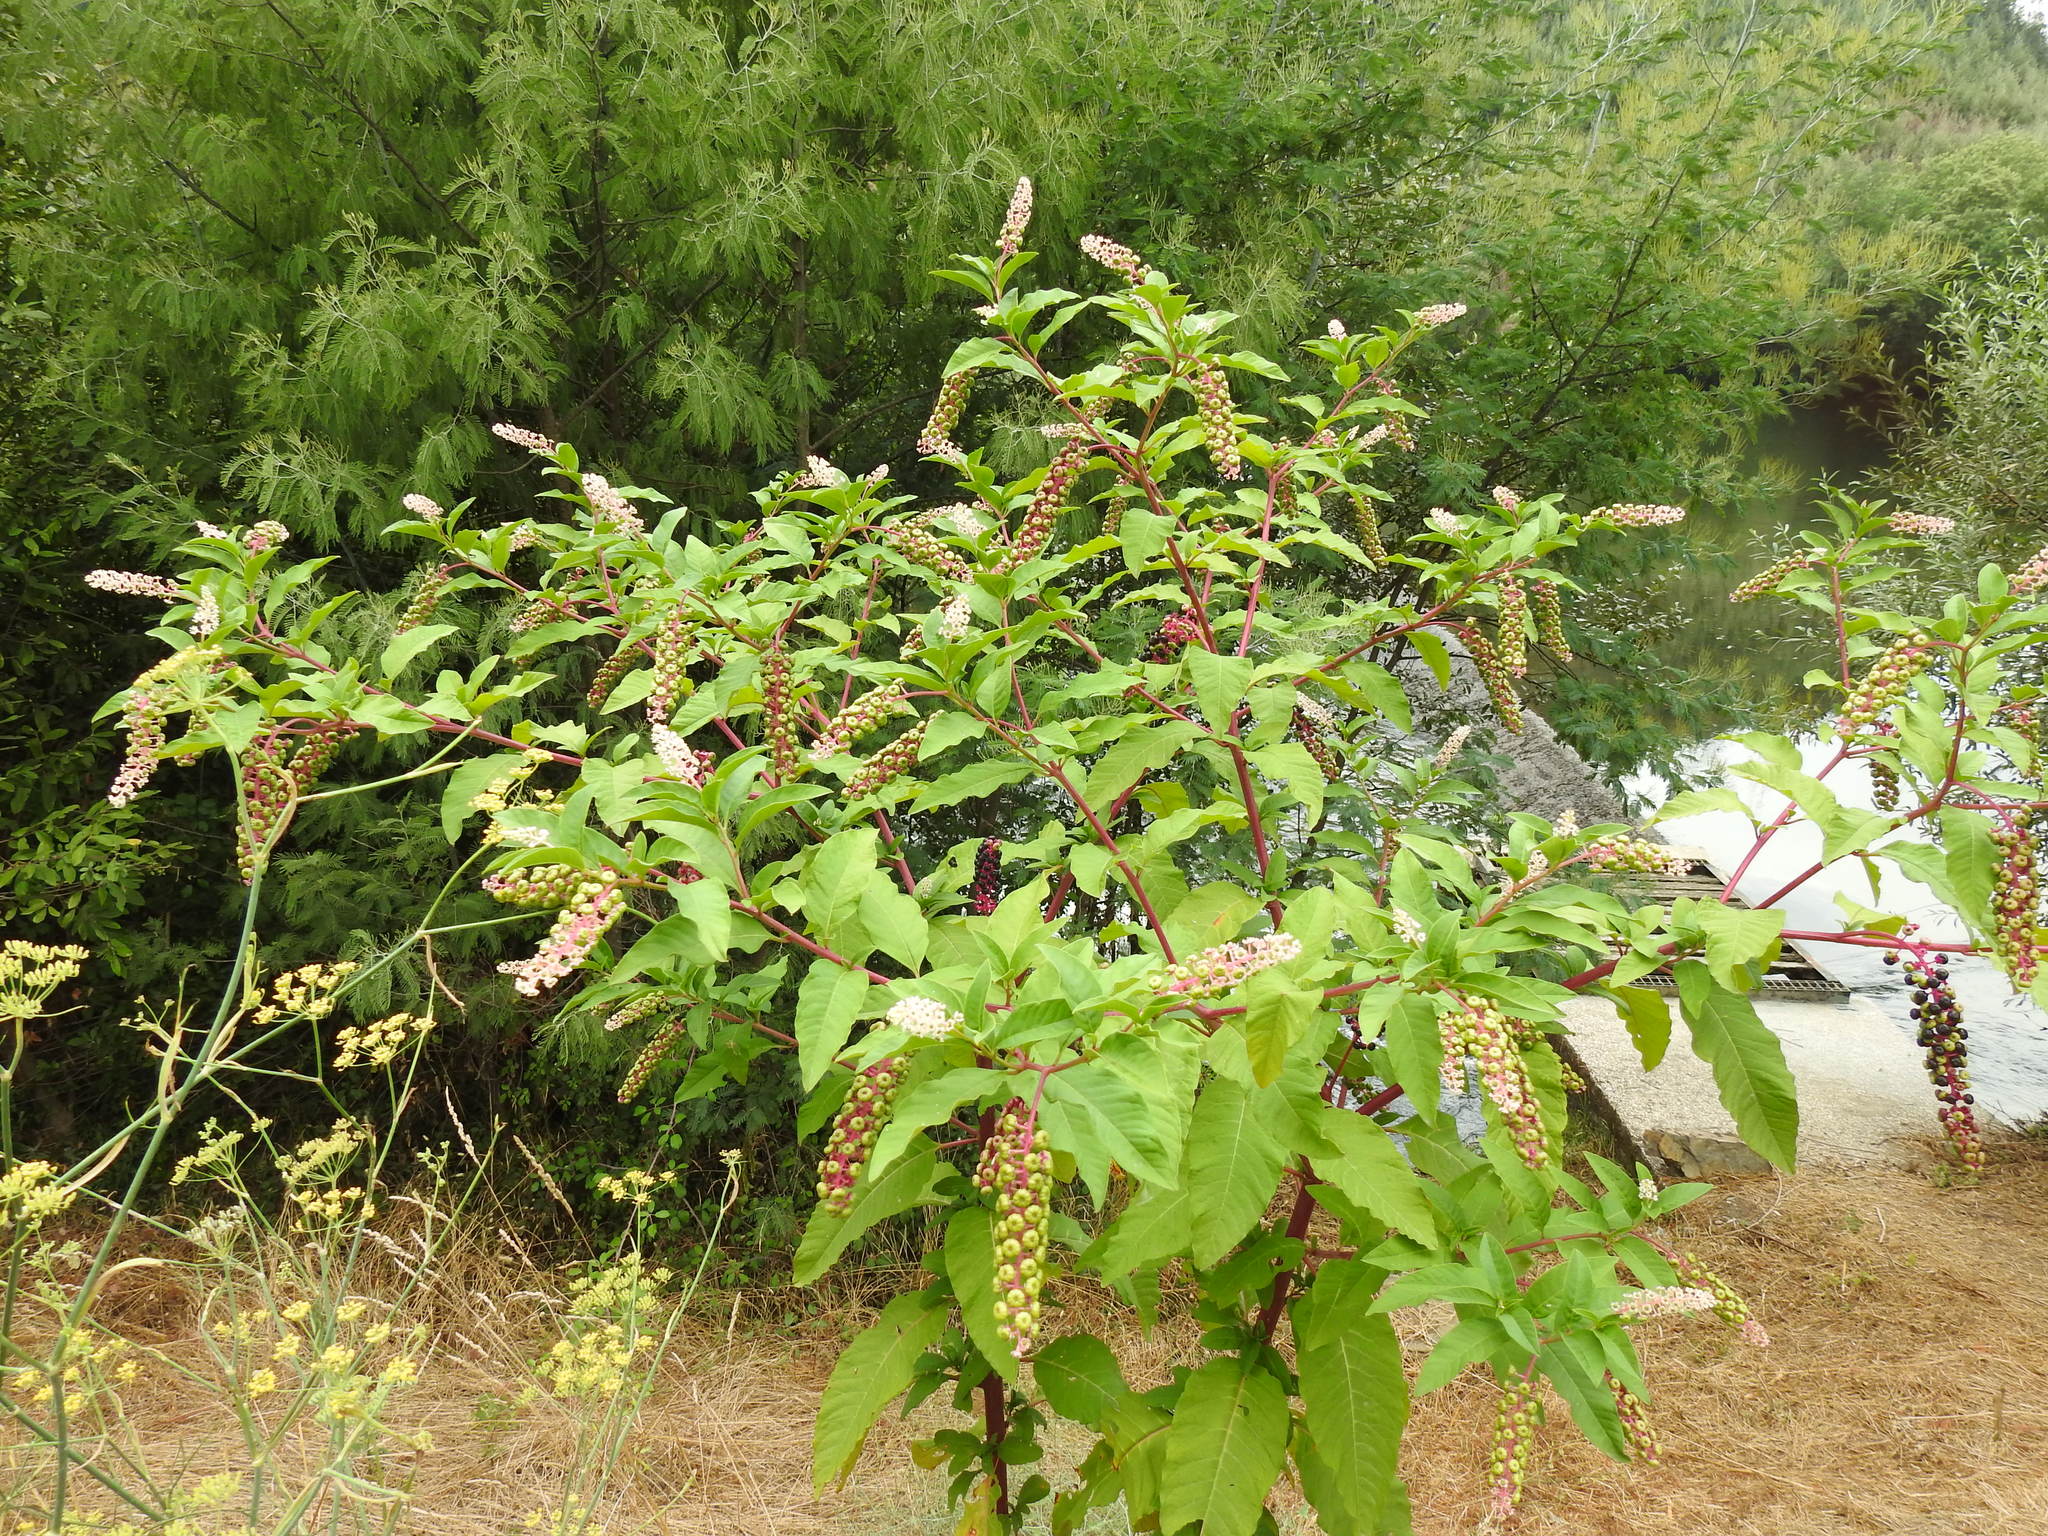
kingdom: Plantae
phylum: Tracheophyta
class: Magnoliopsida
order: Caryophyllales
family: Phytolaccaceae
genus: Phytolacca
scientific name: Phytolacca americana
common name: American pokeweed
